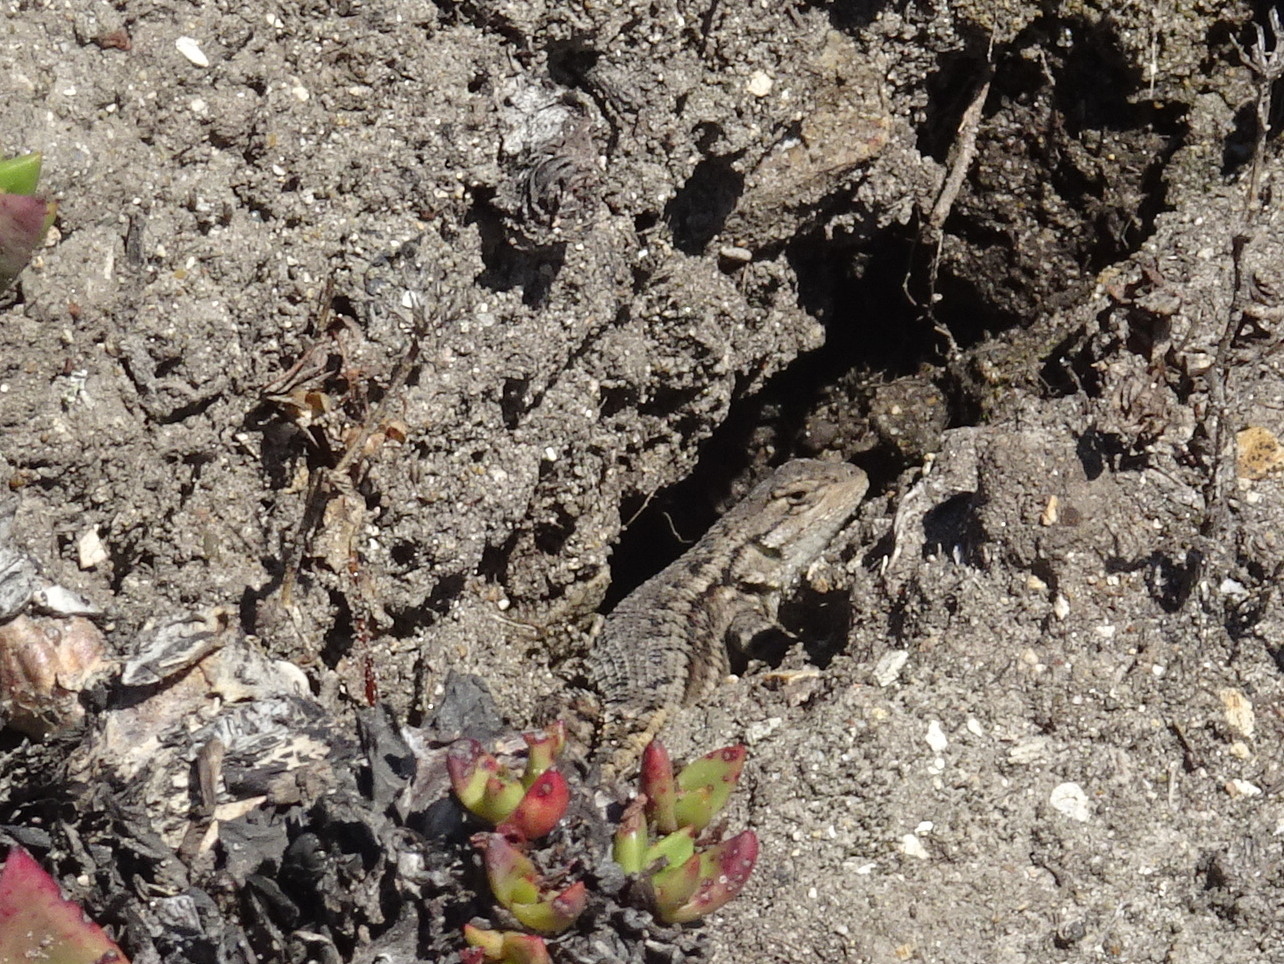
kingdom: Animalia
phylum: Chordata
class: Squamata
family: Phrynosomatidae
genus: Sceloporus
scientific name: Sceloporus occidentalis
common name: Western fence lizard
